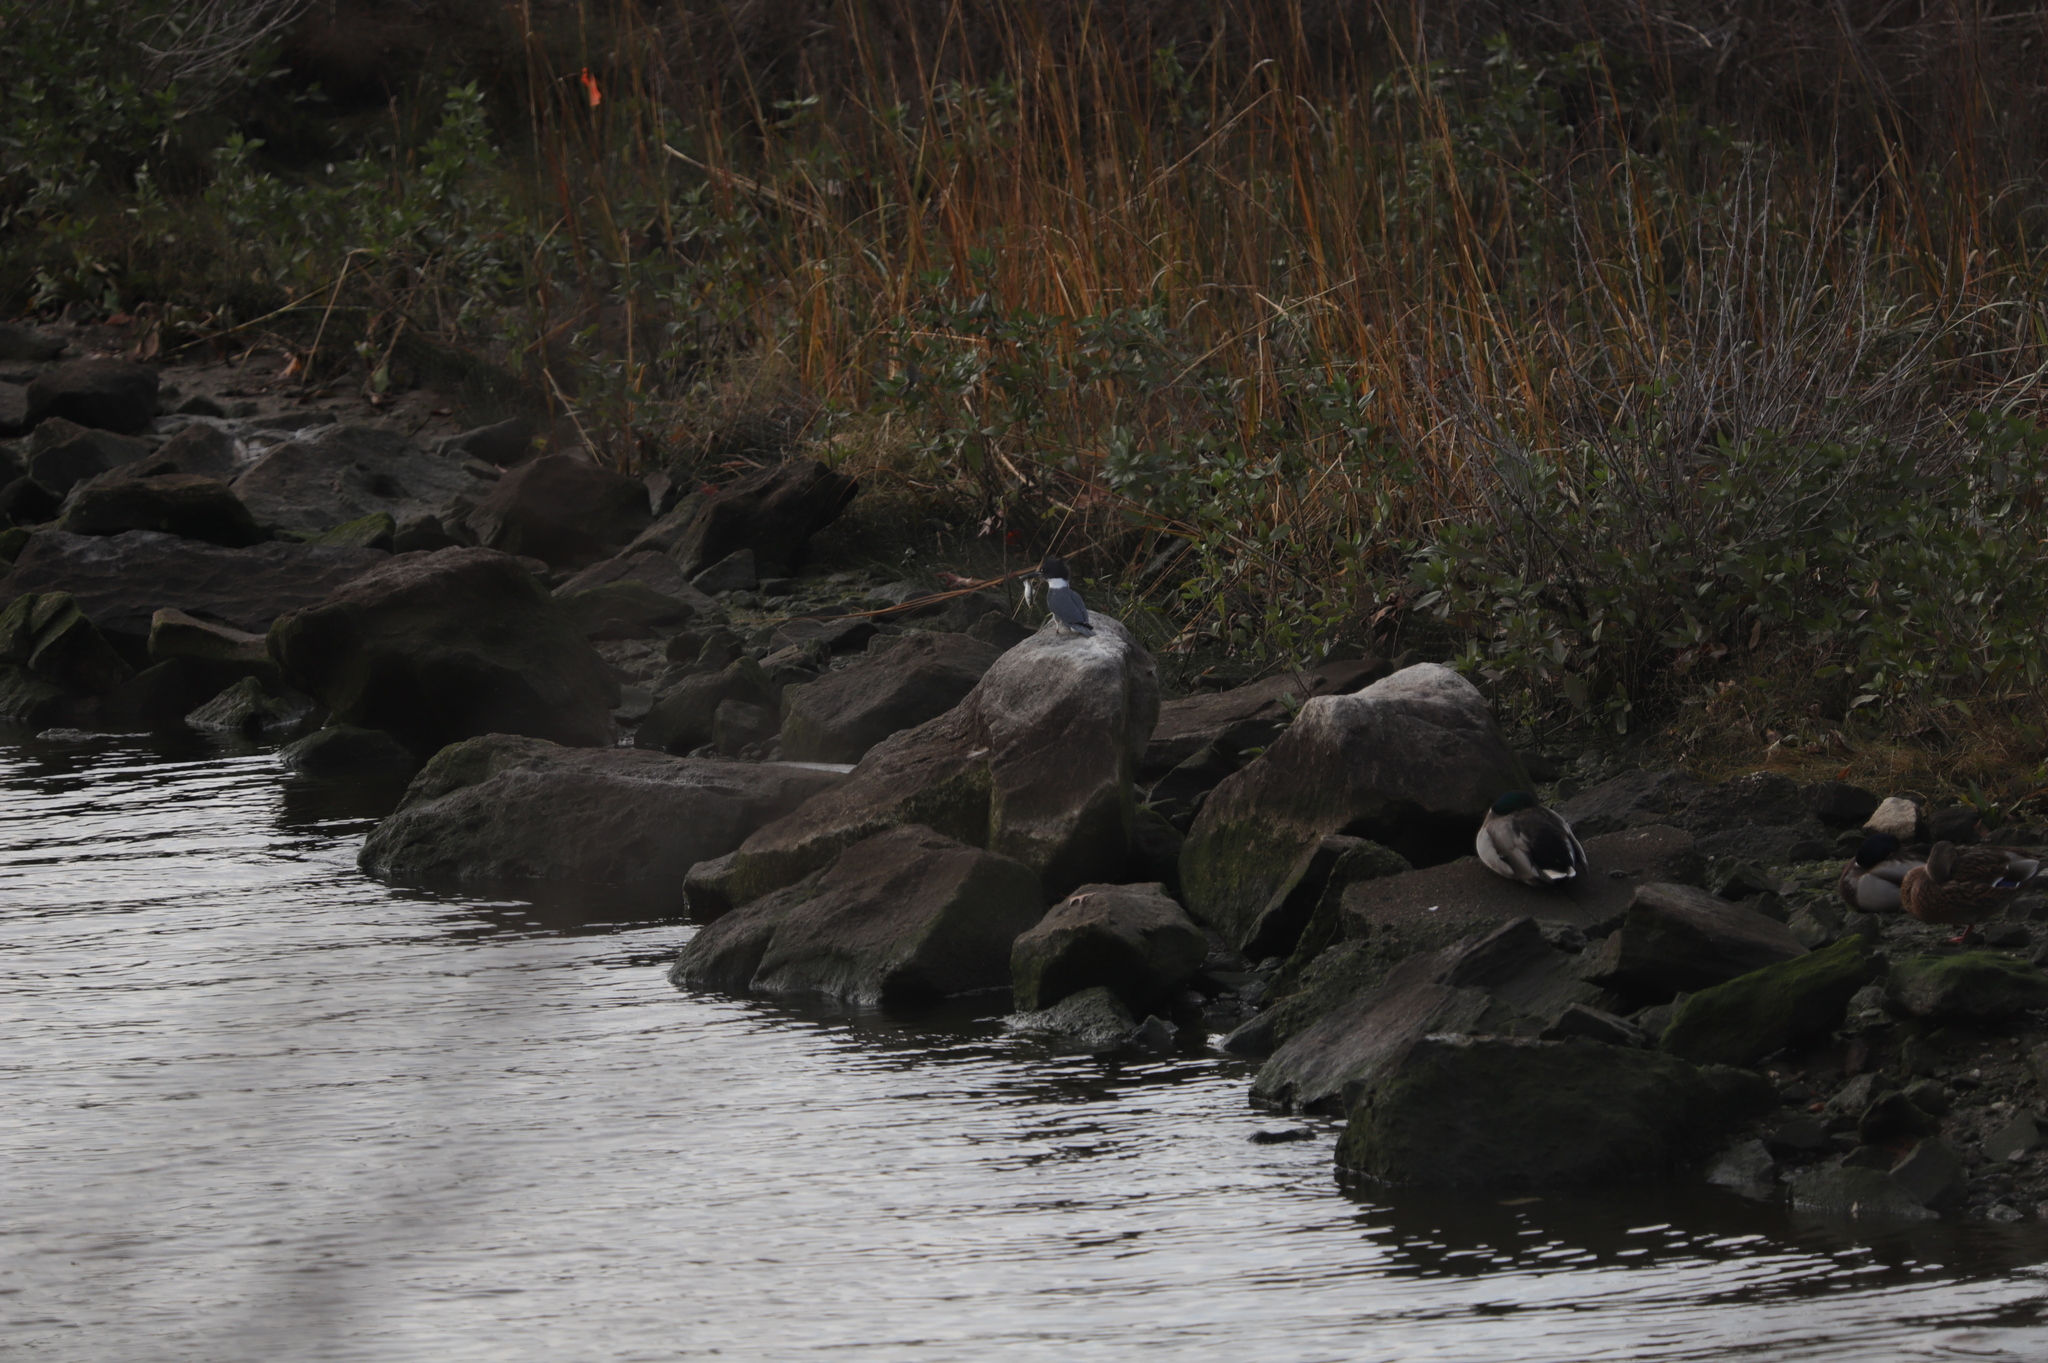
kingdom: Animalia
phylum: Chordata
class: Aves
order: Coraciiformes
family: Alcedinidae
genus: Megaceryle
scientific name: Megaceryle alcyon
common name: Belted kingfisher
